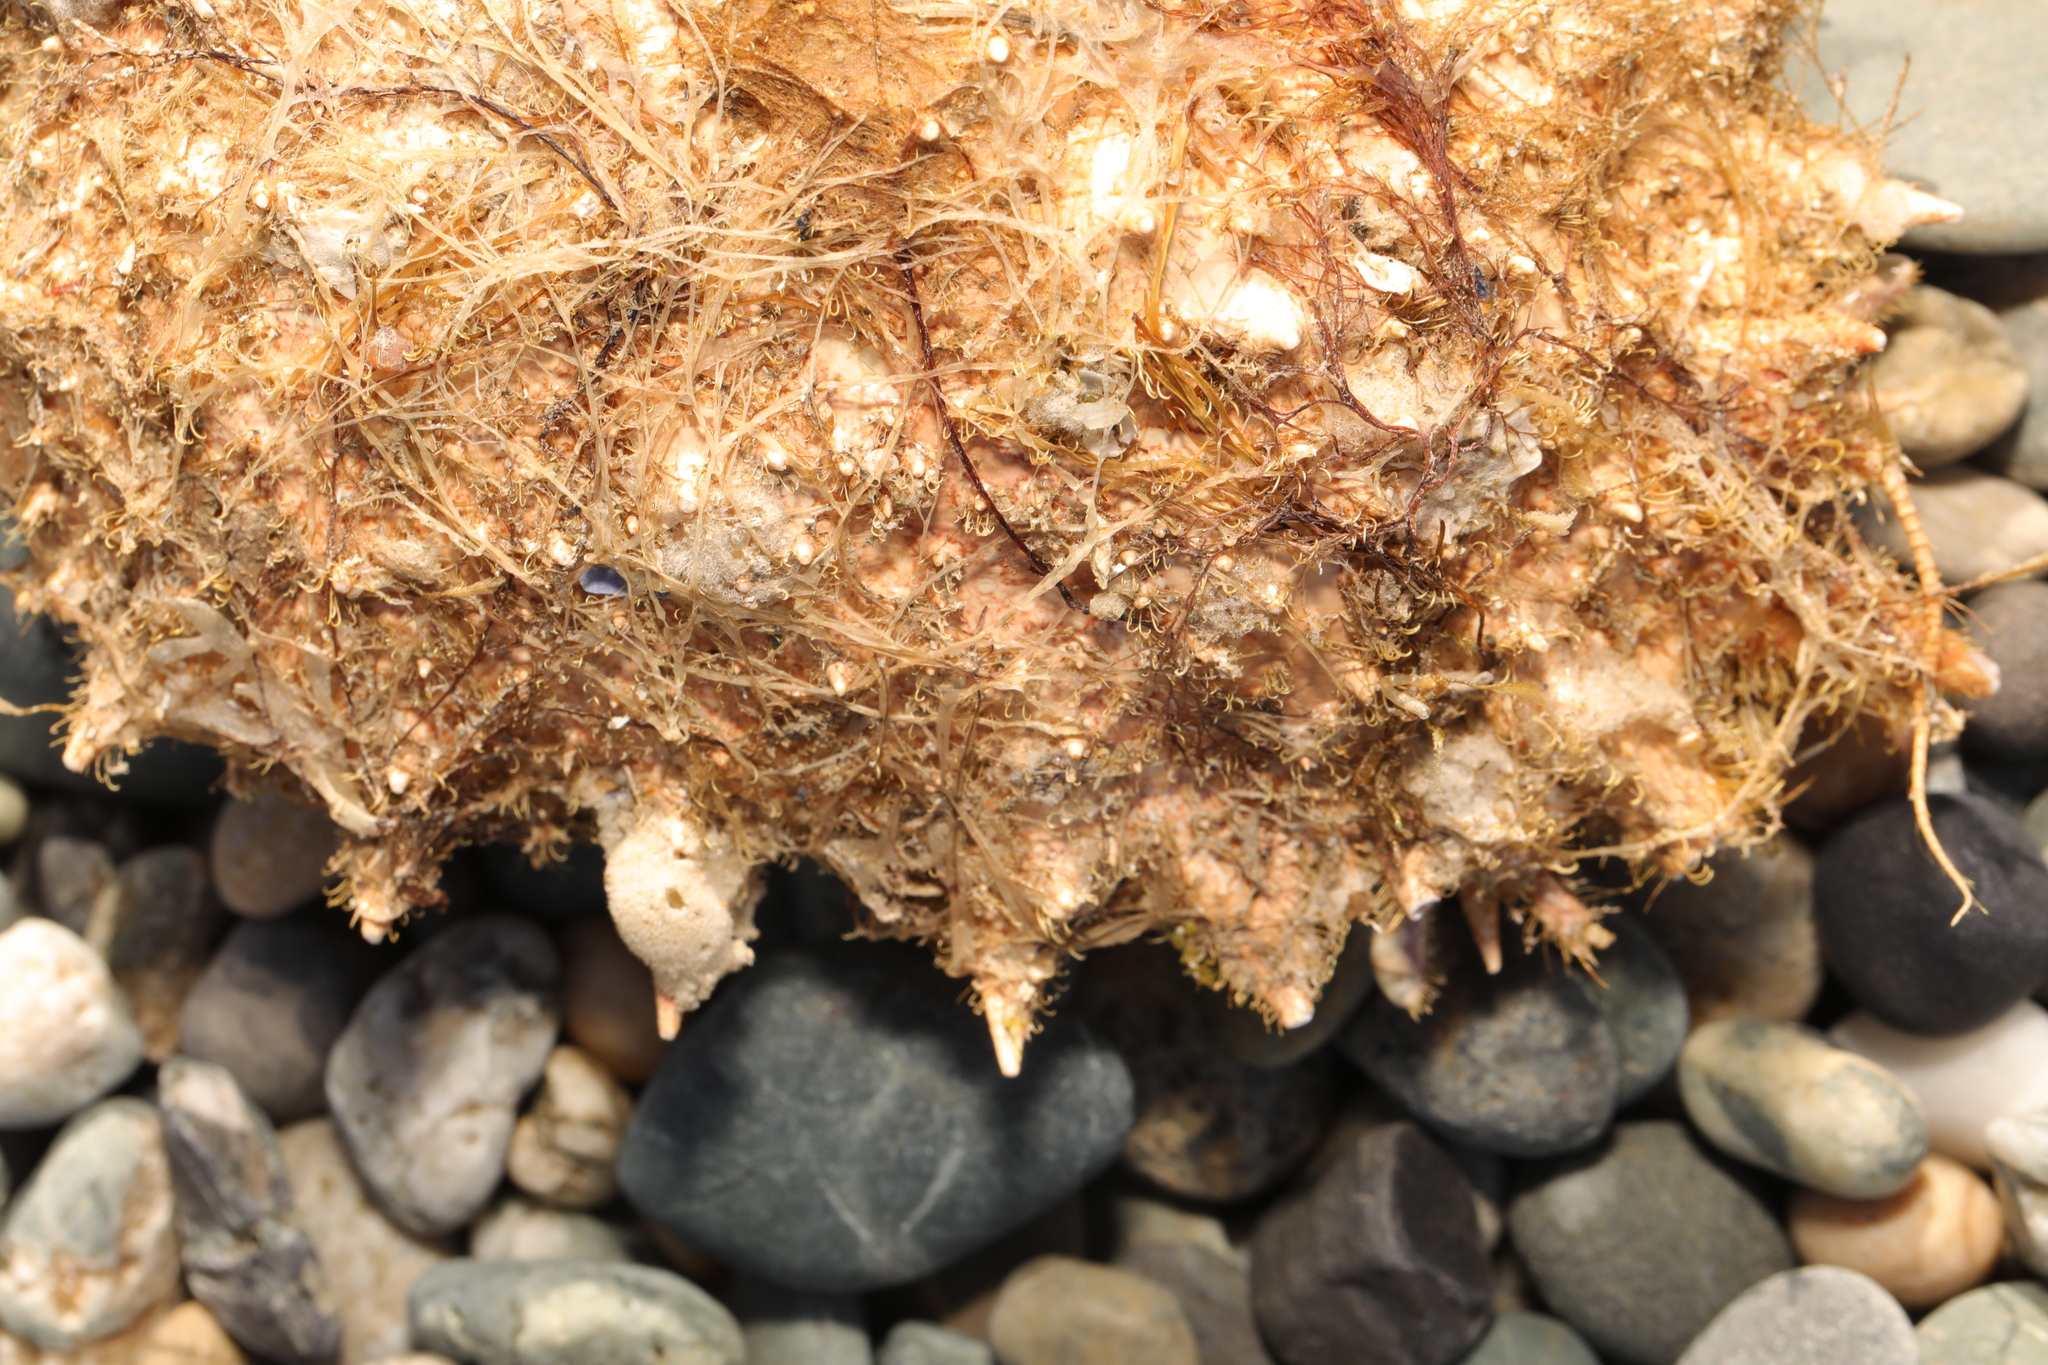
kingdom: Animalia
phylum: Arthropoda
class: Malacostraca
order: Decapoda
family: Majidae
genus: Maja
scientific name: Maja brachydactyla
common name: Common spider crab
